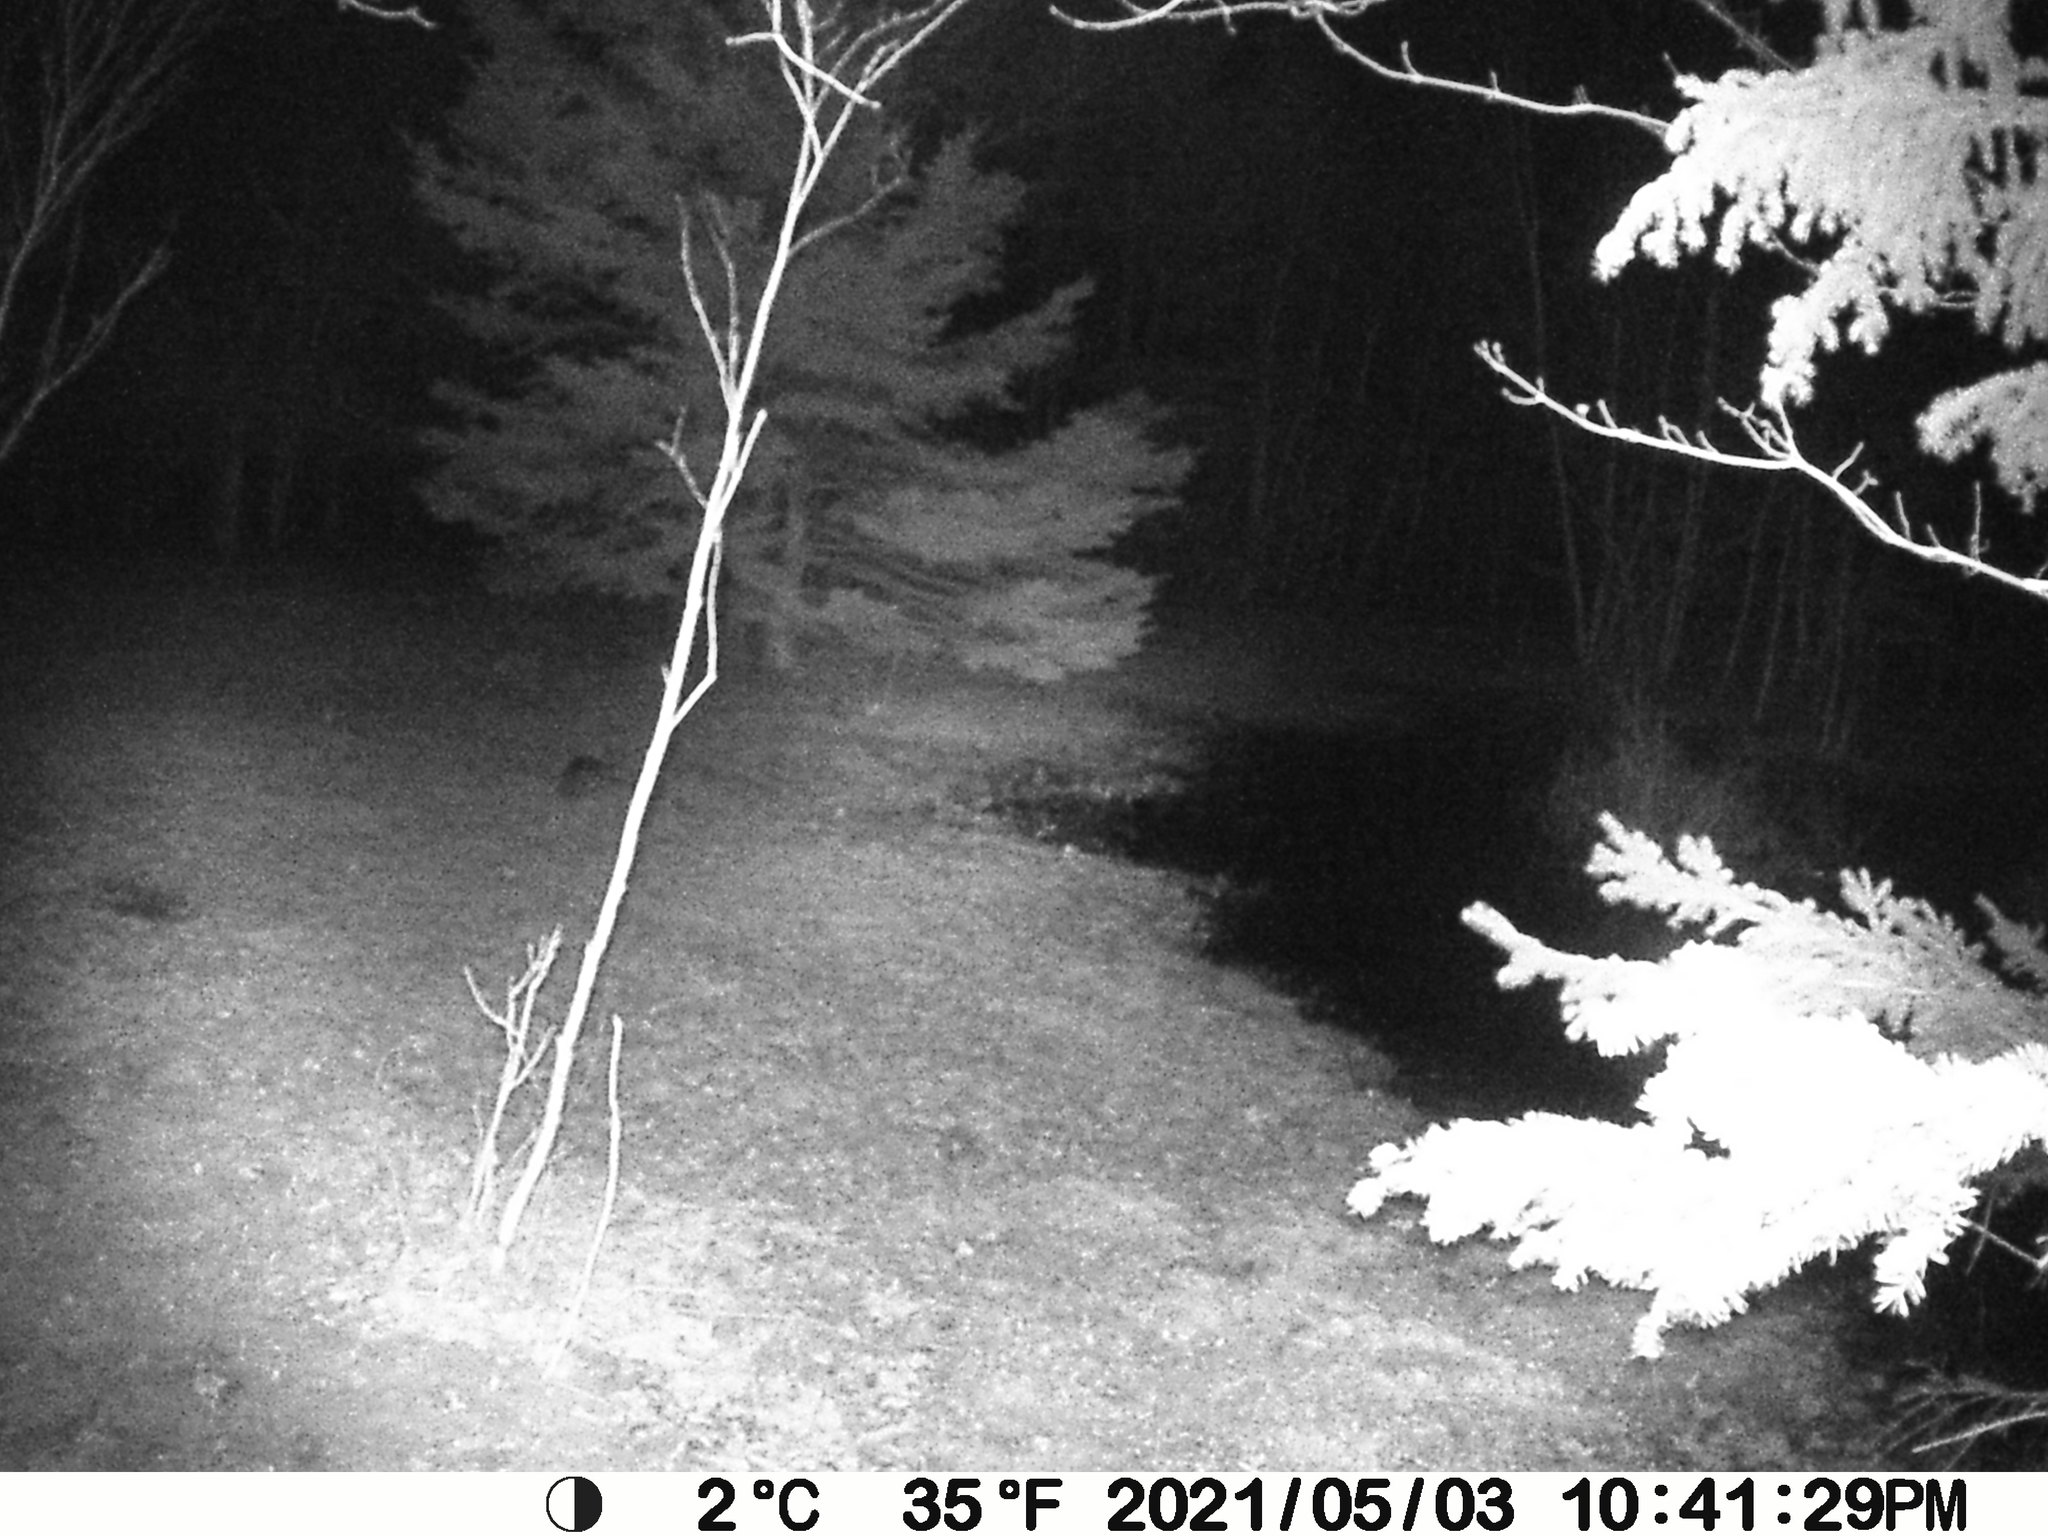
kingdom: Animalia
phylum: Chordata
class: Mammalia
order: Lagomorpha
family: Leporidae
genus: Lepus
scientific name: Lepus americanus
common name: Snowshoe hare
